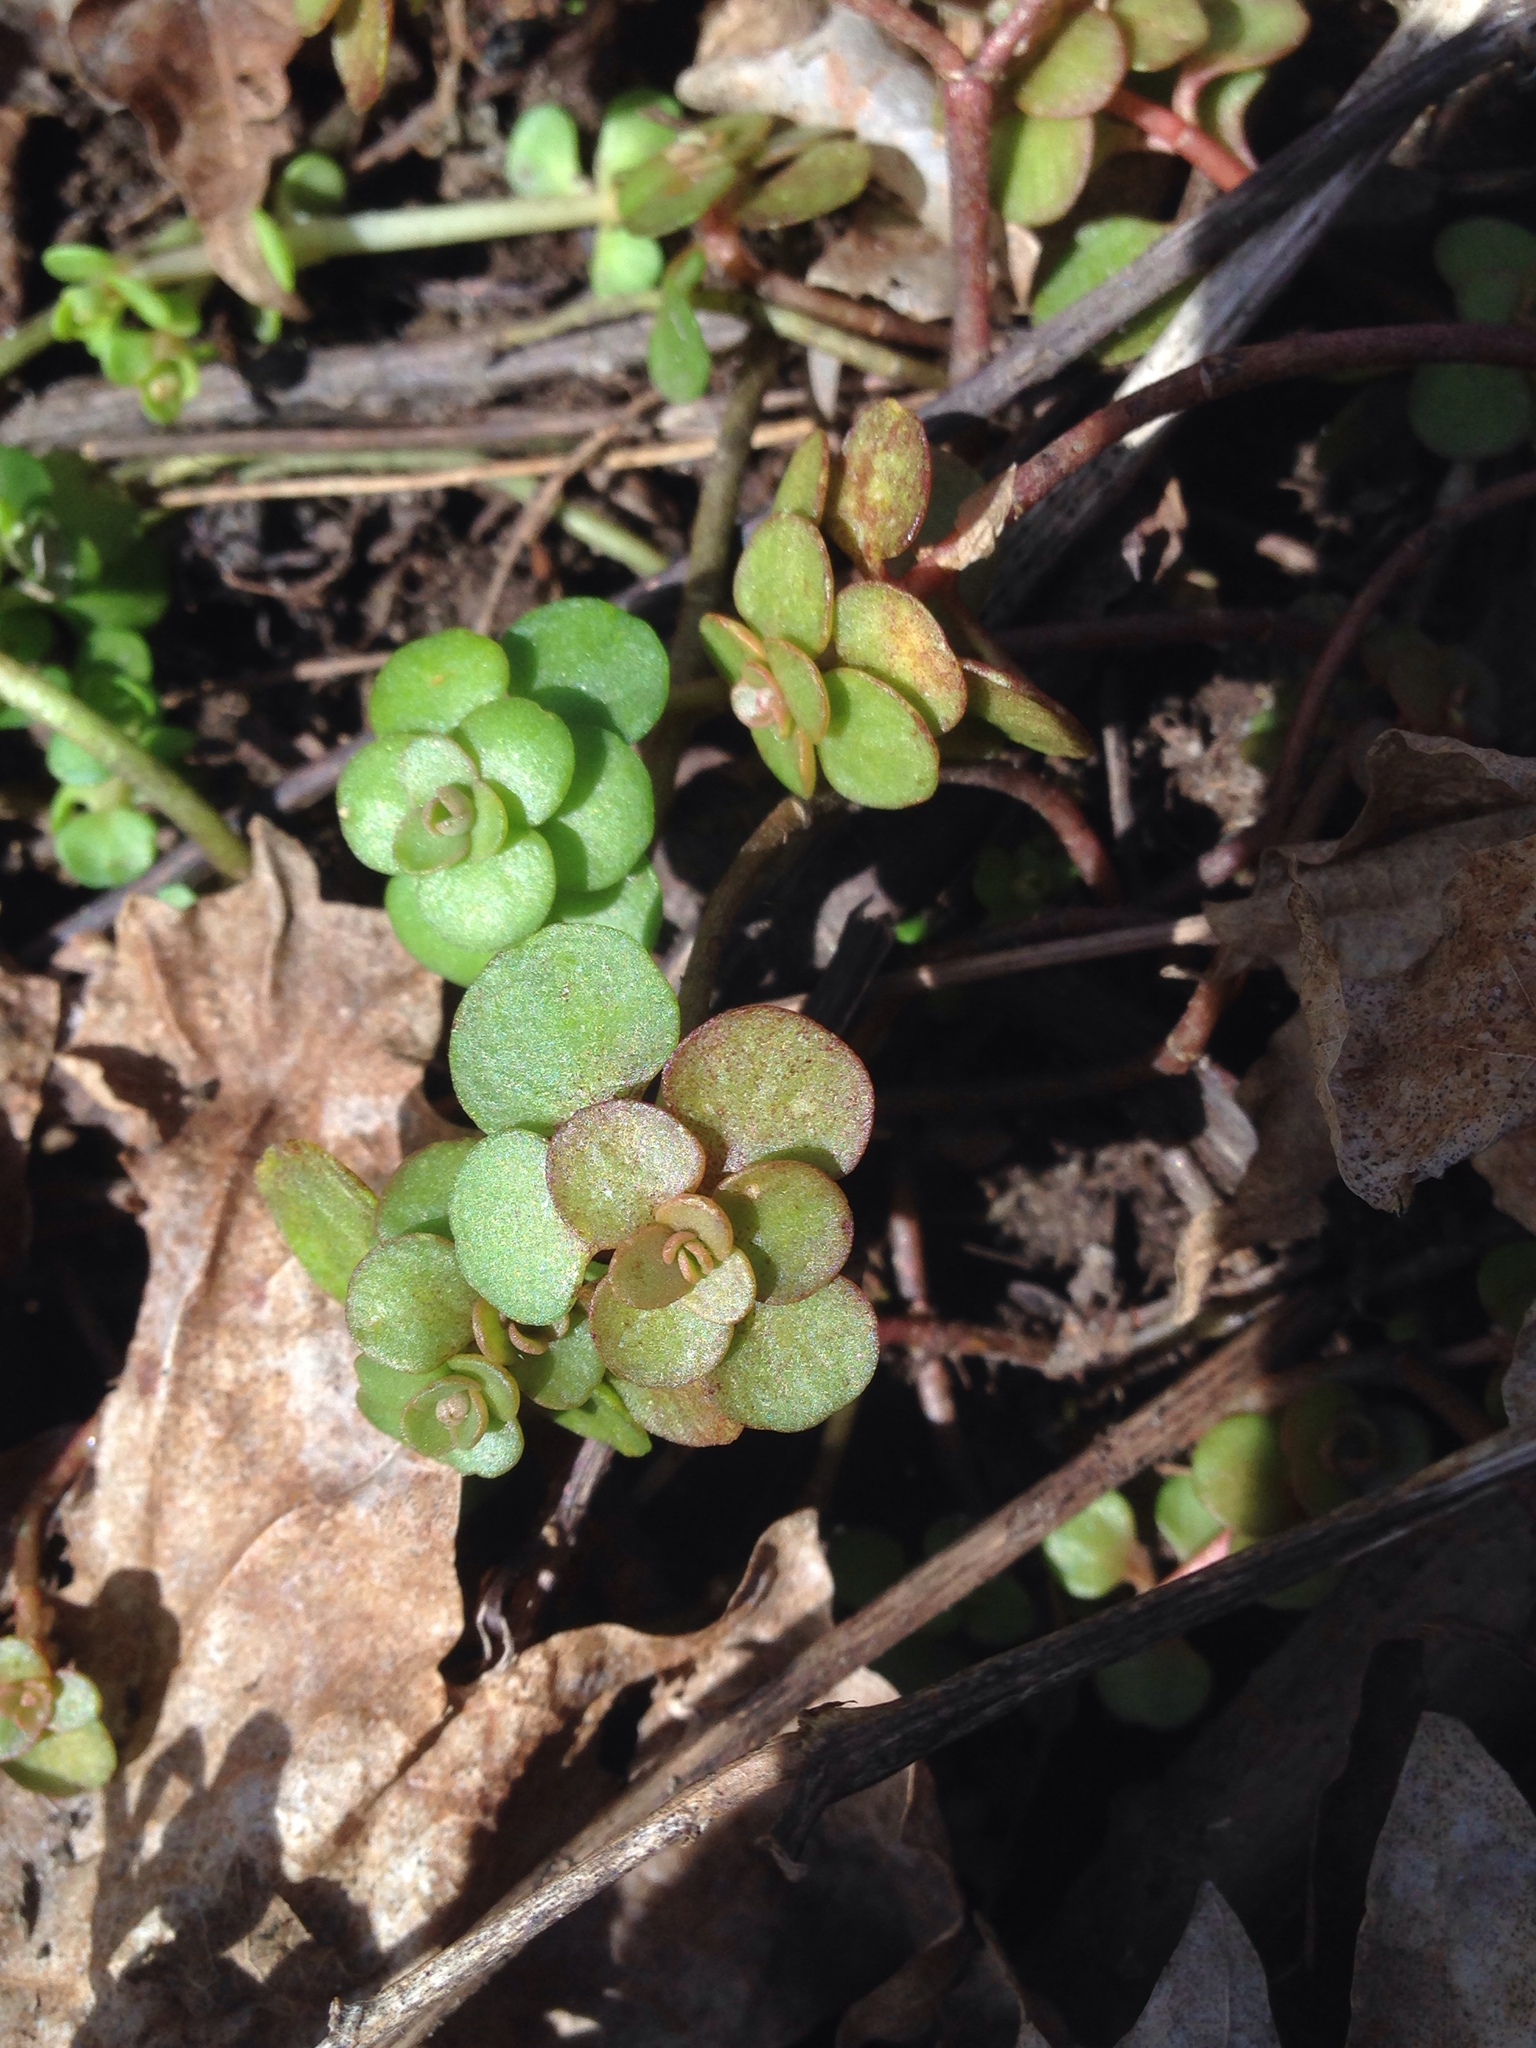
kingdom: Plantae
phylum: Tracheophyta
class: Magnoliopsida
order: Saxifragales
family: Crassulaceae
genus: Sedum
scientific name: Sedum ternatum
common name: Wild stonecrop
